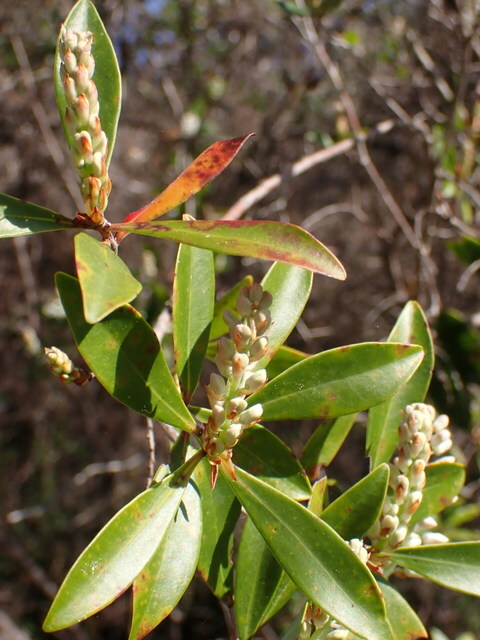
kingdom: Plantae
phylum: Tracheophyta
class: Magnoliopsida
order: Ericales
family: Cyrillaceae
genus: Cliftonia
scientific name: Cliftonia monophylla
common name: Titi
